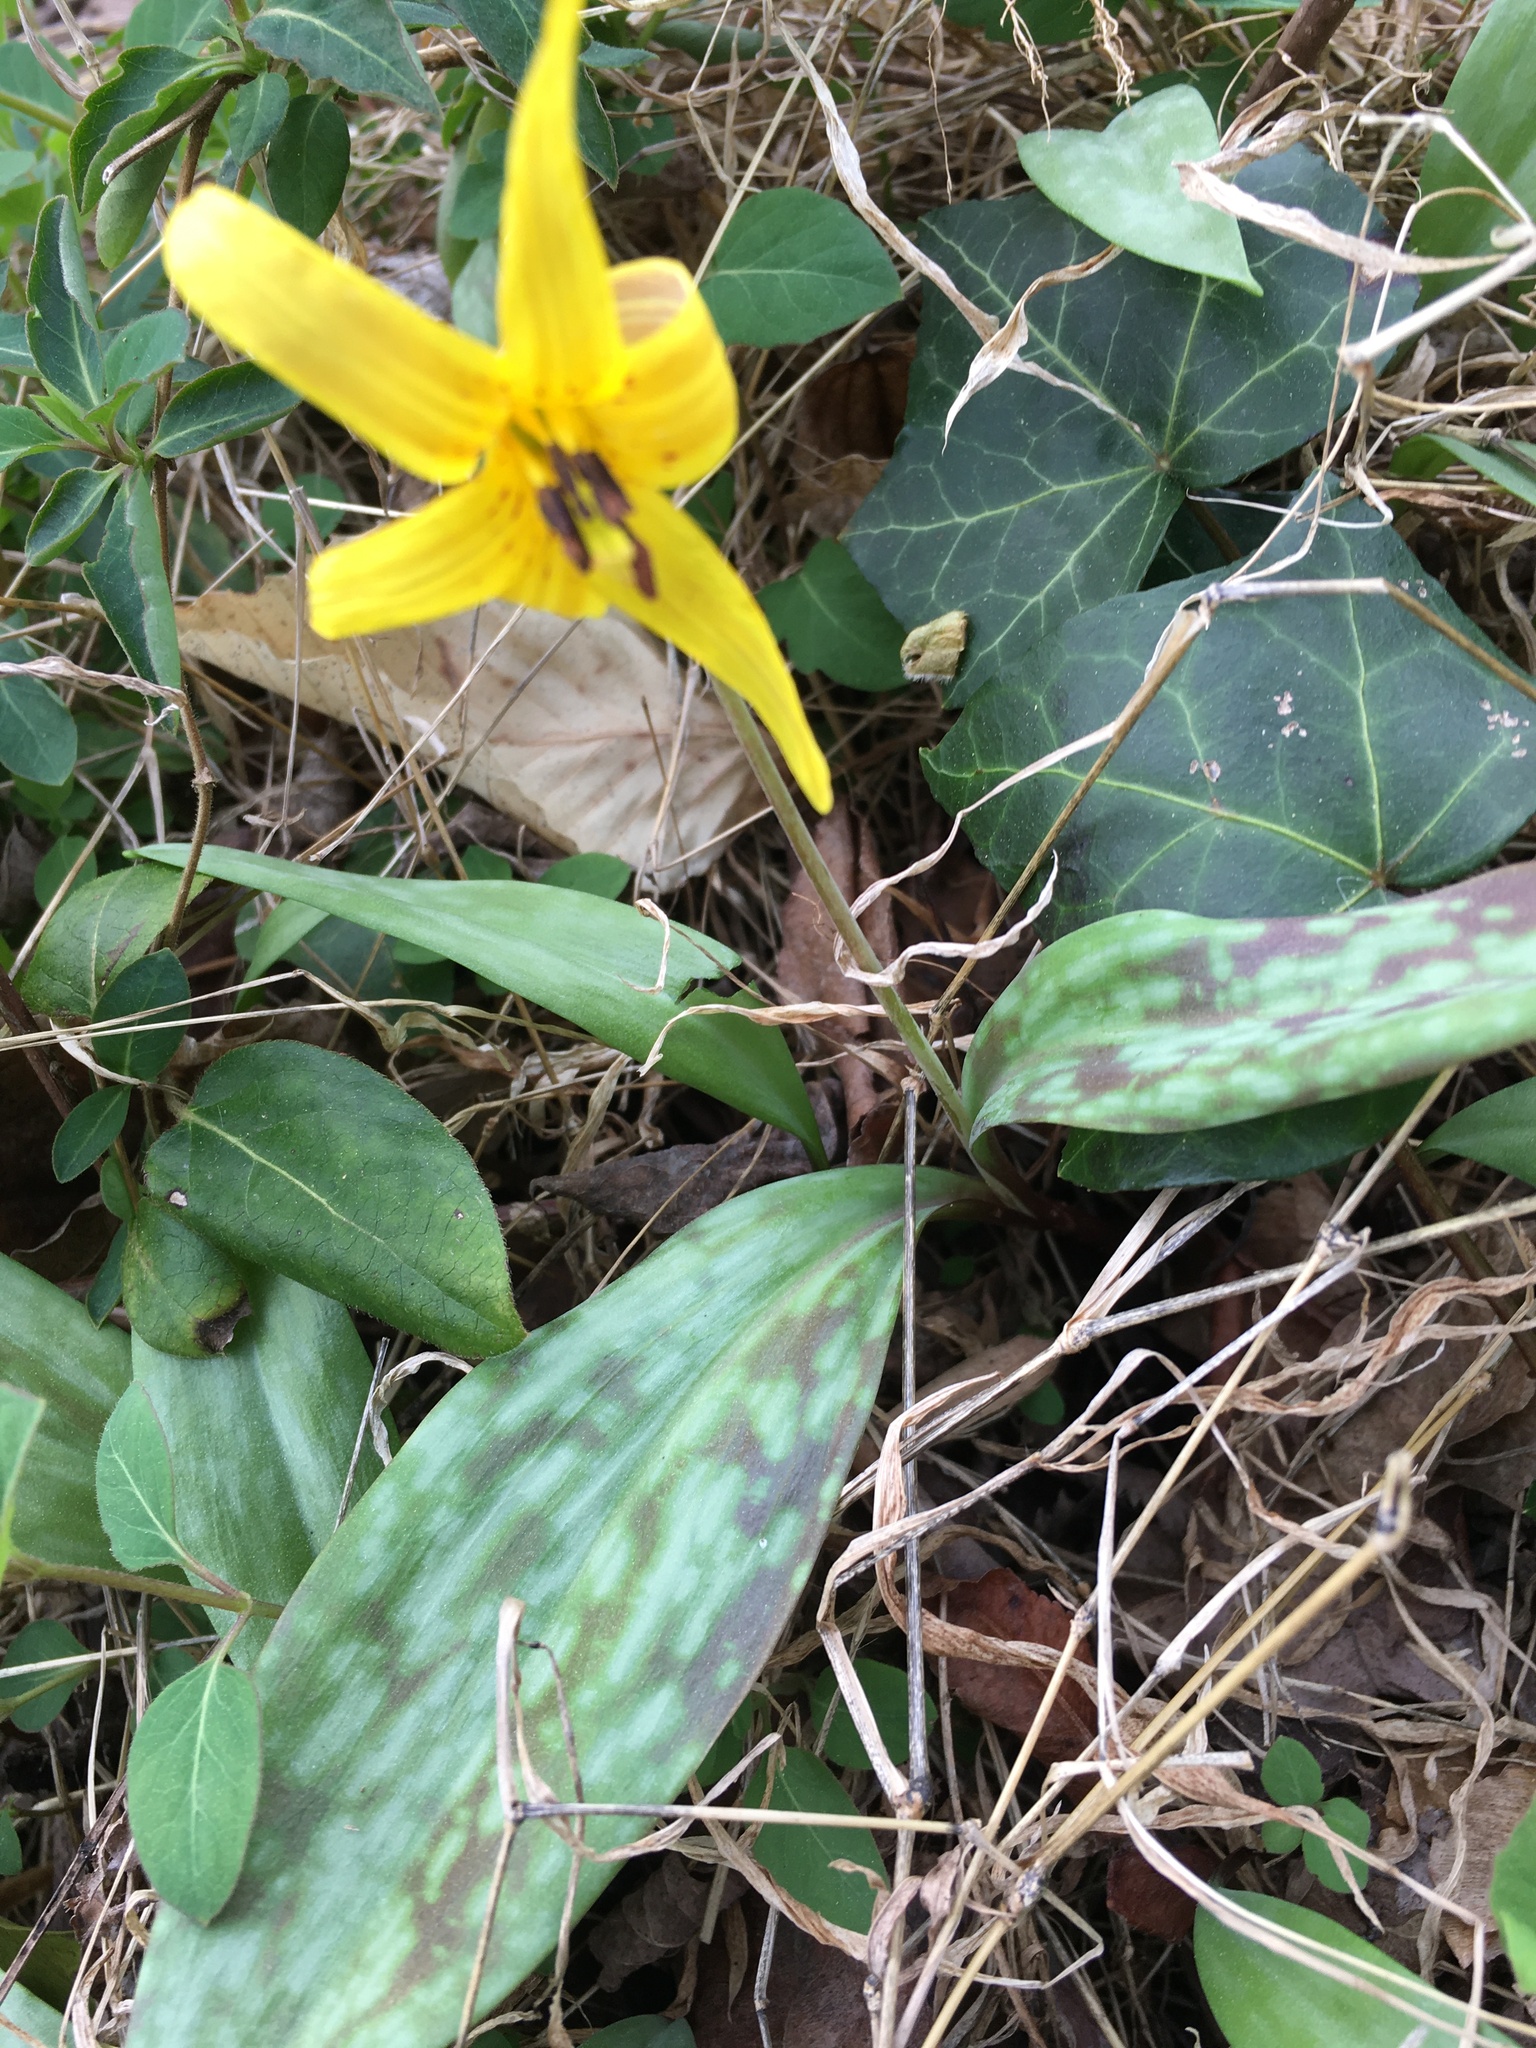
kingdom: Plantae
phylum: Tracheophyta
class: Liliopsida
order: Liliales
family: Liliaceae
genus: Erythronium
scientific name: Erythronium americanum
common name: Yellow adder's-tongue
